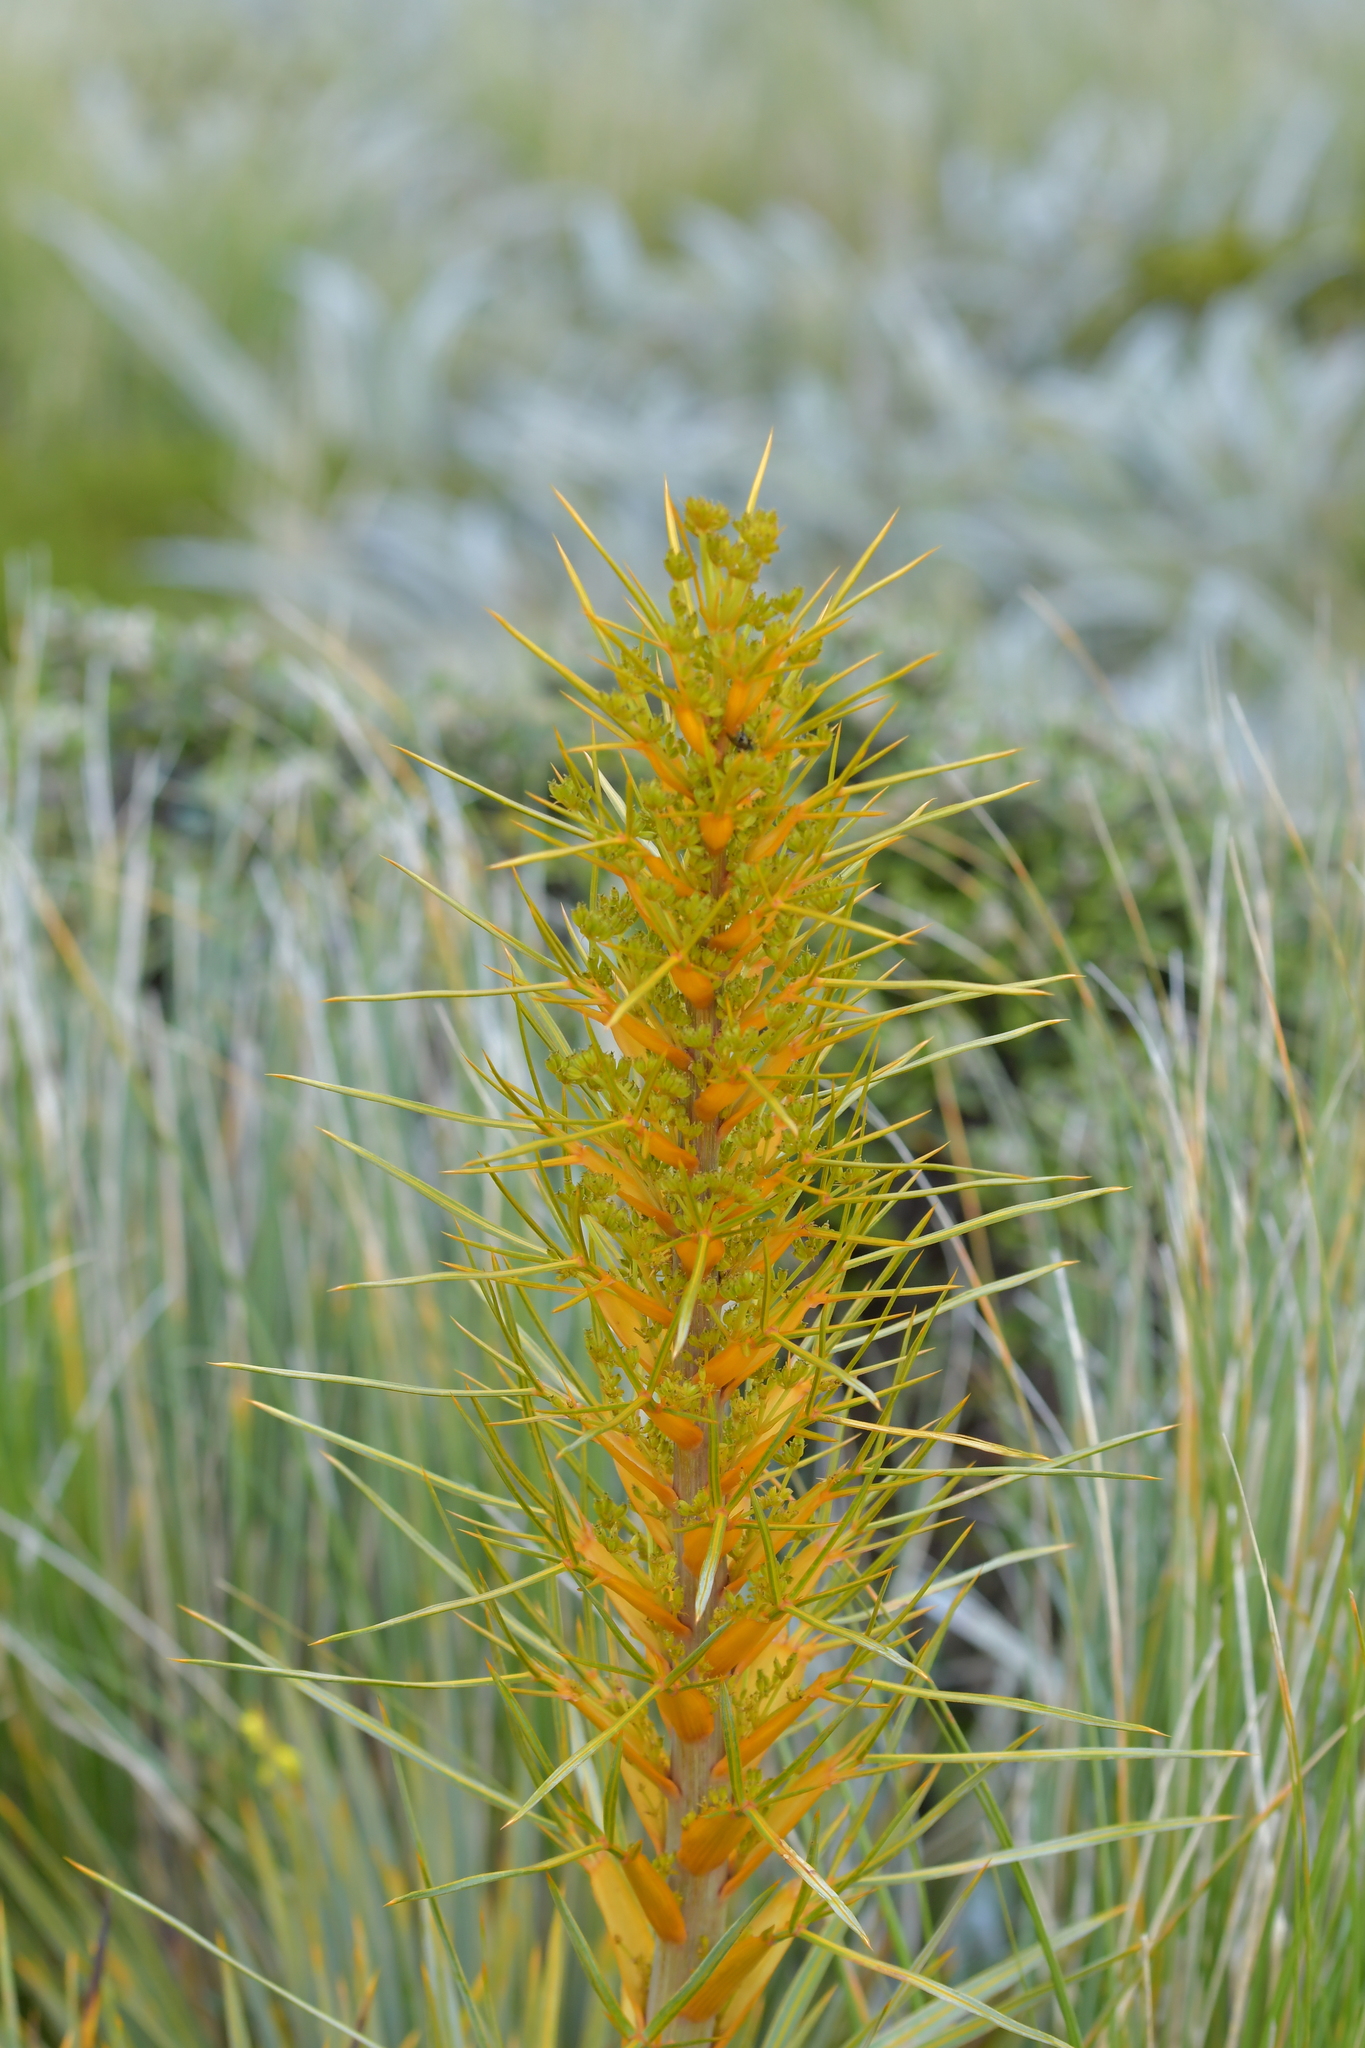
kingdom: Plantae
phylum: Tracheophyta
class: Magnoliopsida
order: Apiales
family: Apiaceae
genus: Aciphylla
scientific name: Aciphylla colensoi
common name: Colenso's spaniard
